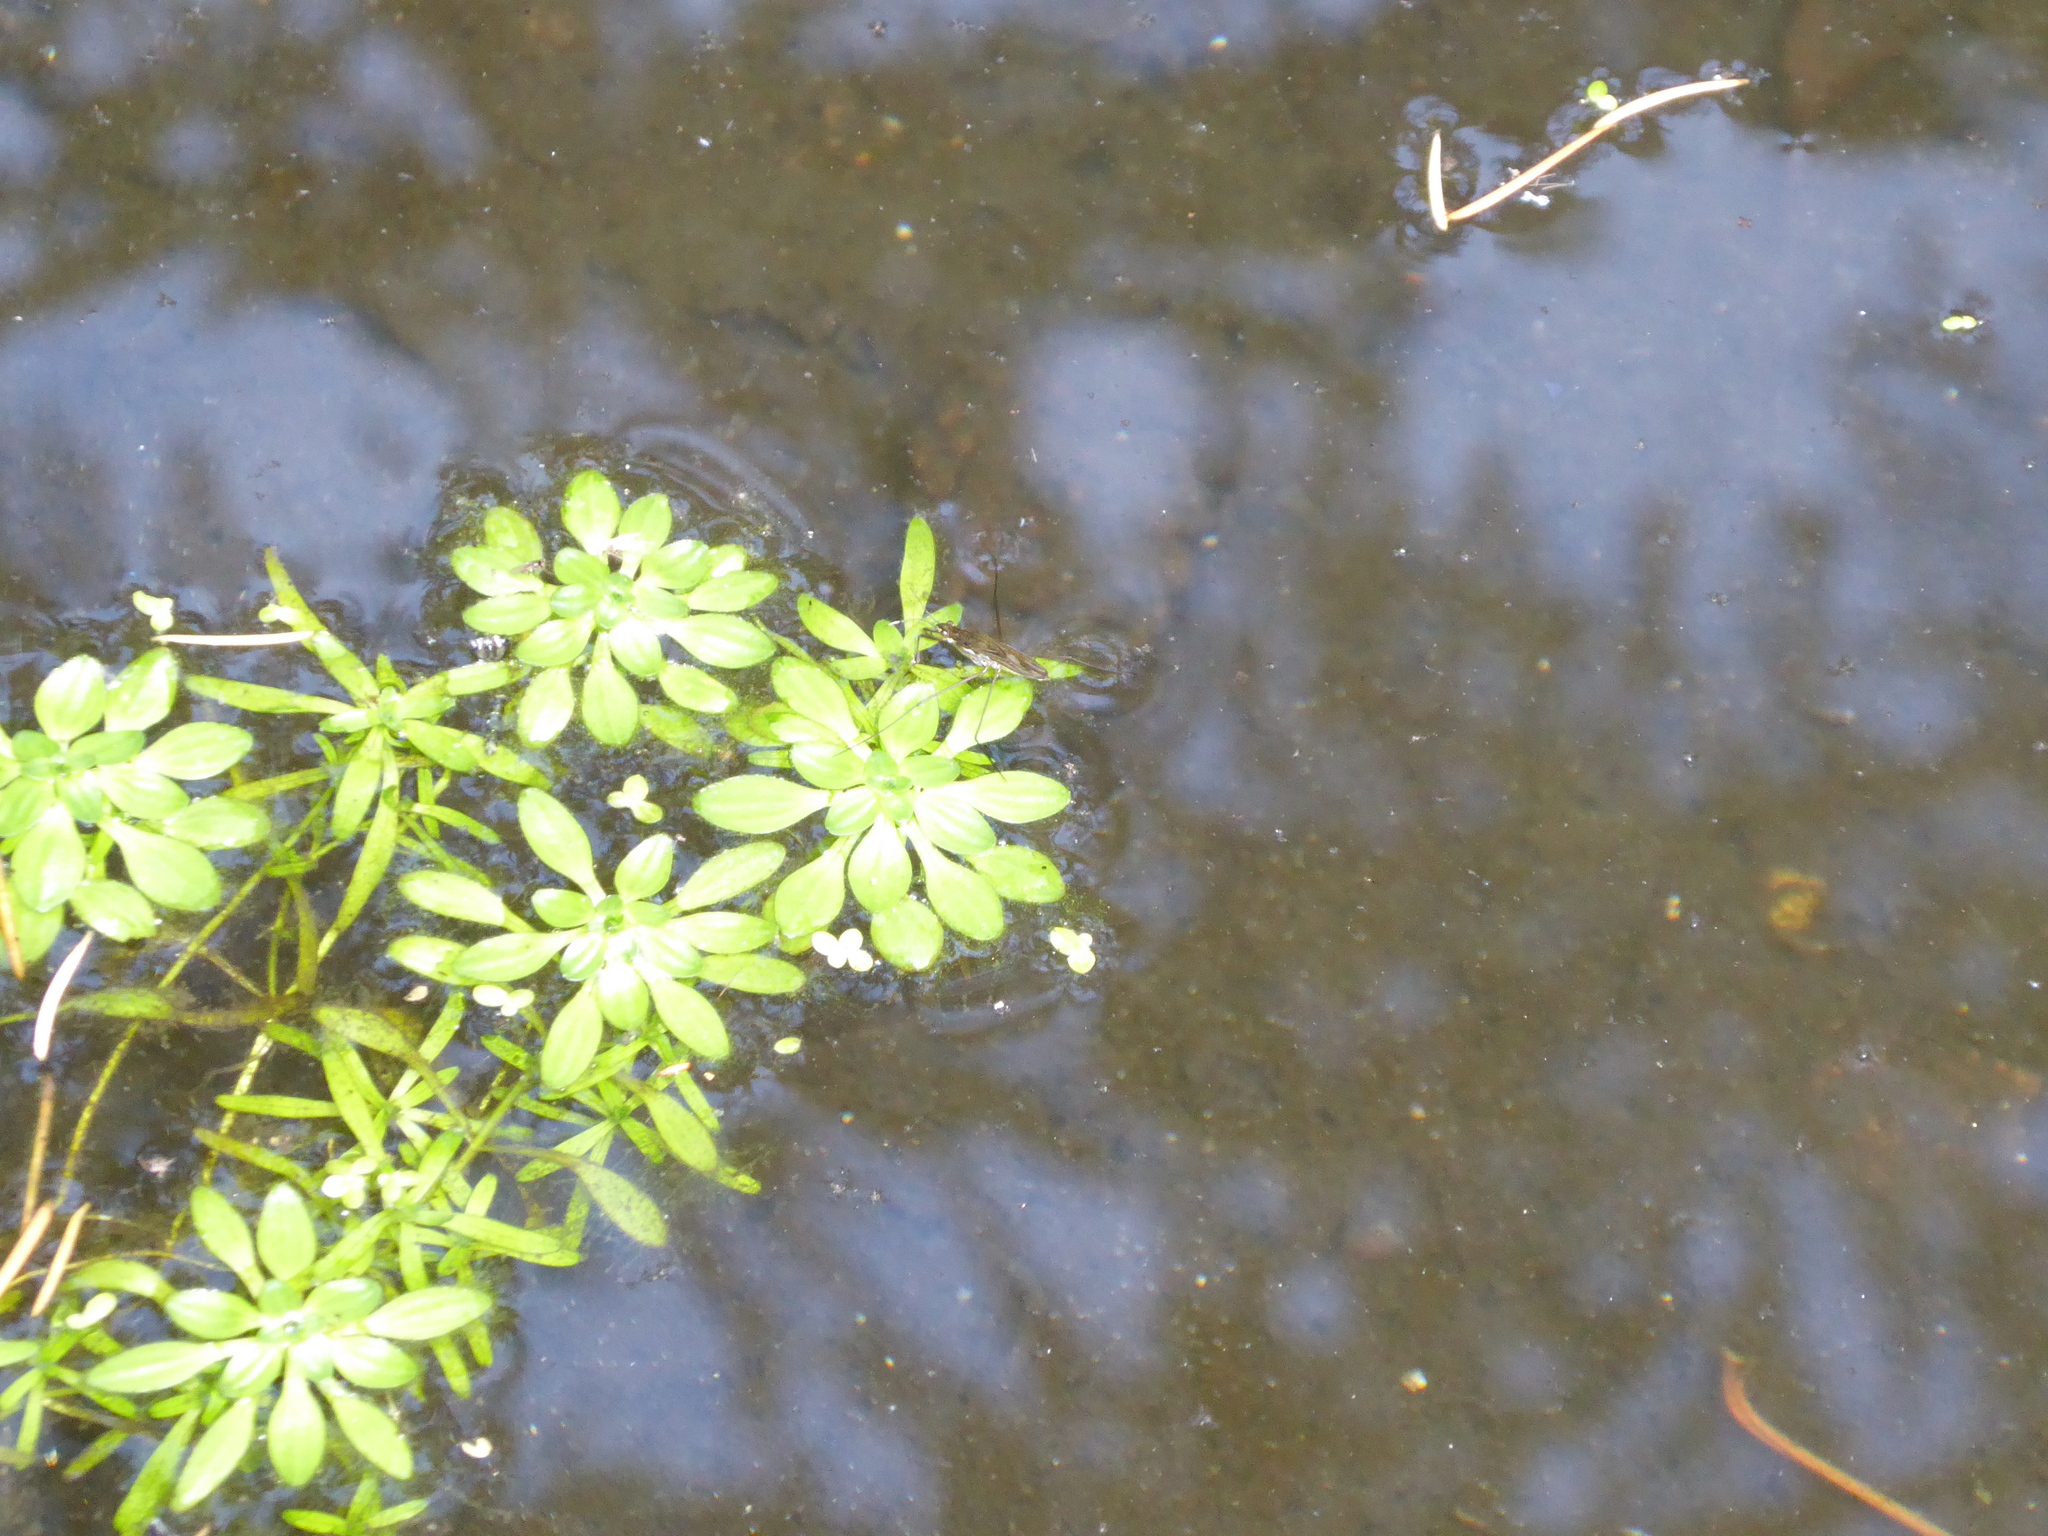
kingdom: Animalia
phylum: Arthropoda
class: Insecta
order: Hemiptera
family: Gerridae
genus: Gerris
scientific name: Gerris
